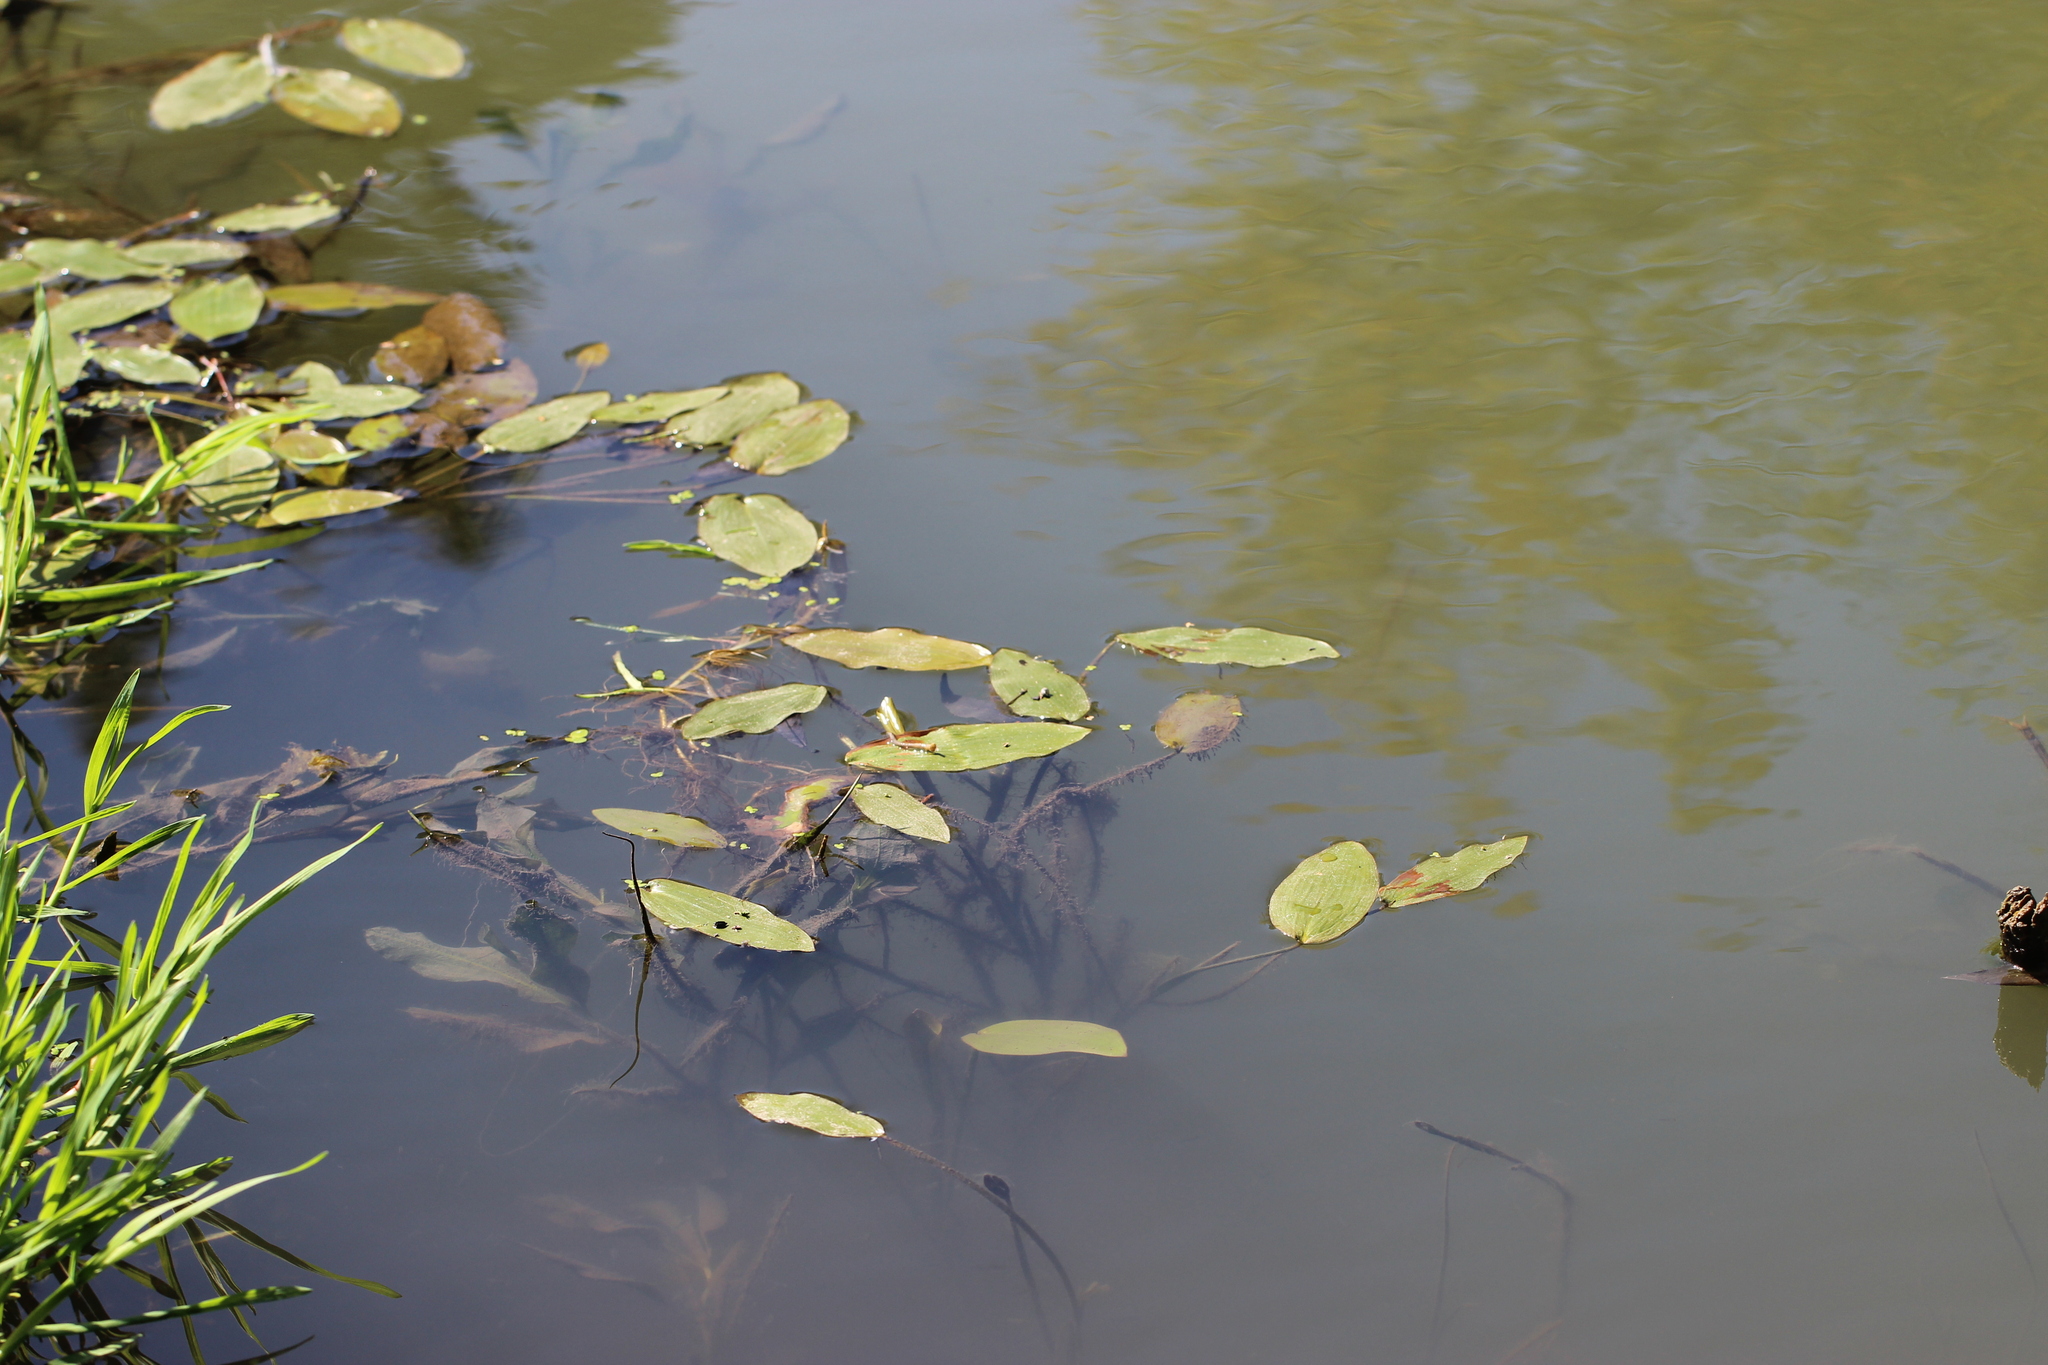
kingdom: Plantae
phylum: Tracheophyta
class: Liliopsida
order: Alismatales
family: Potamogetonaceae
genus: Potamogeton
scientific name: Potamogeton natans
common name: Broad-leaved pondweed
